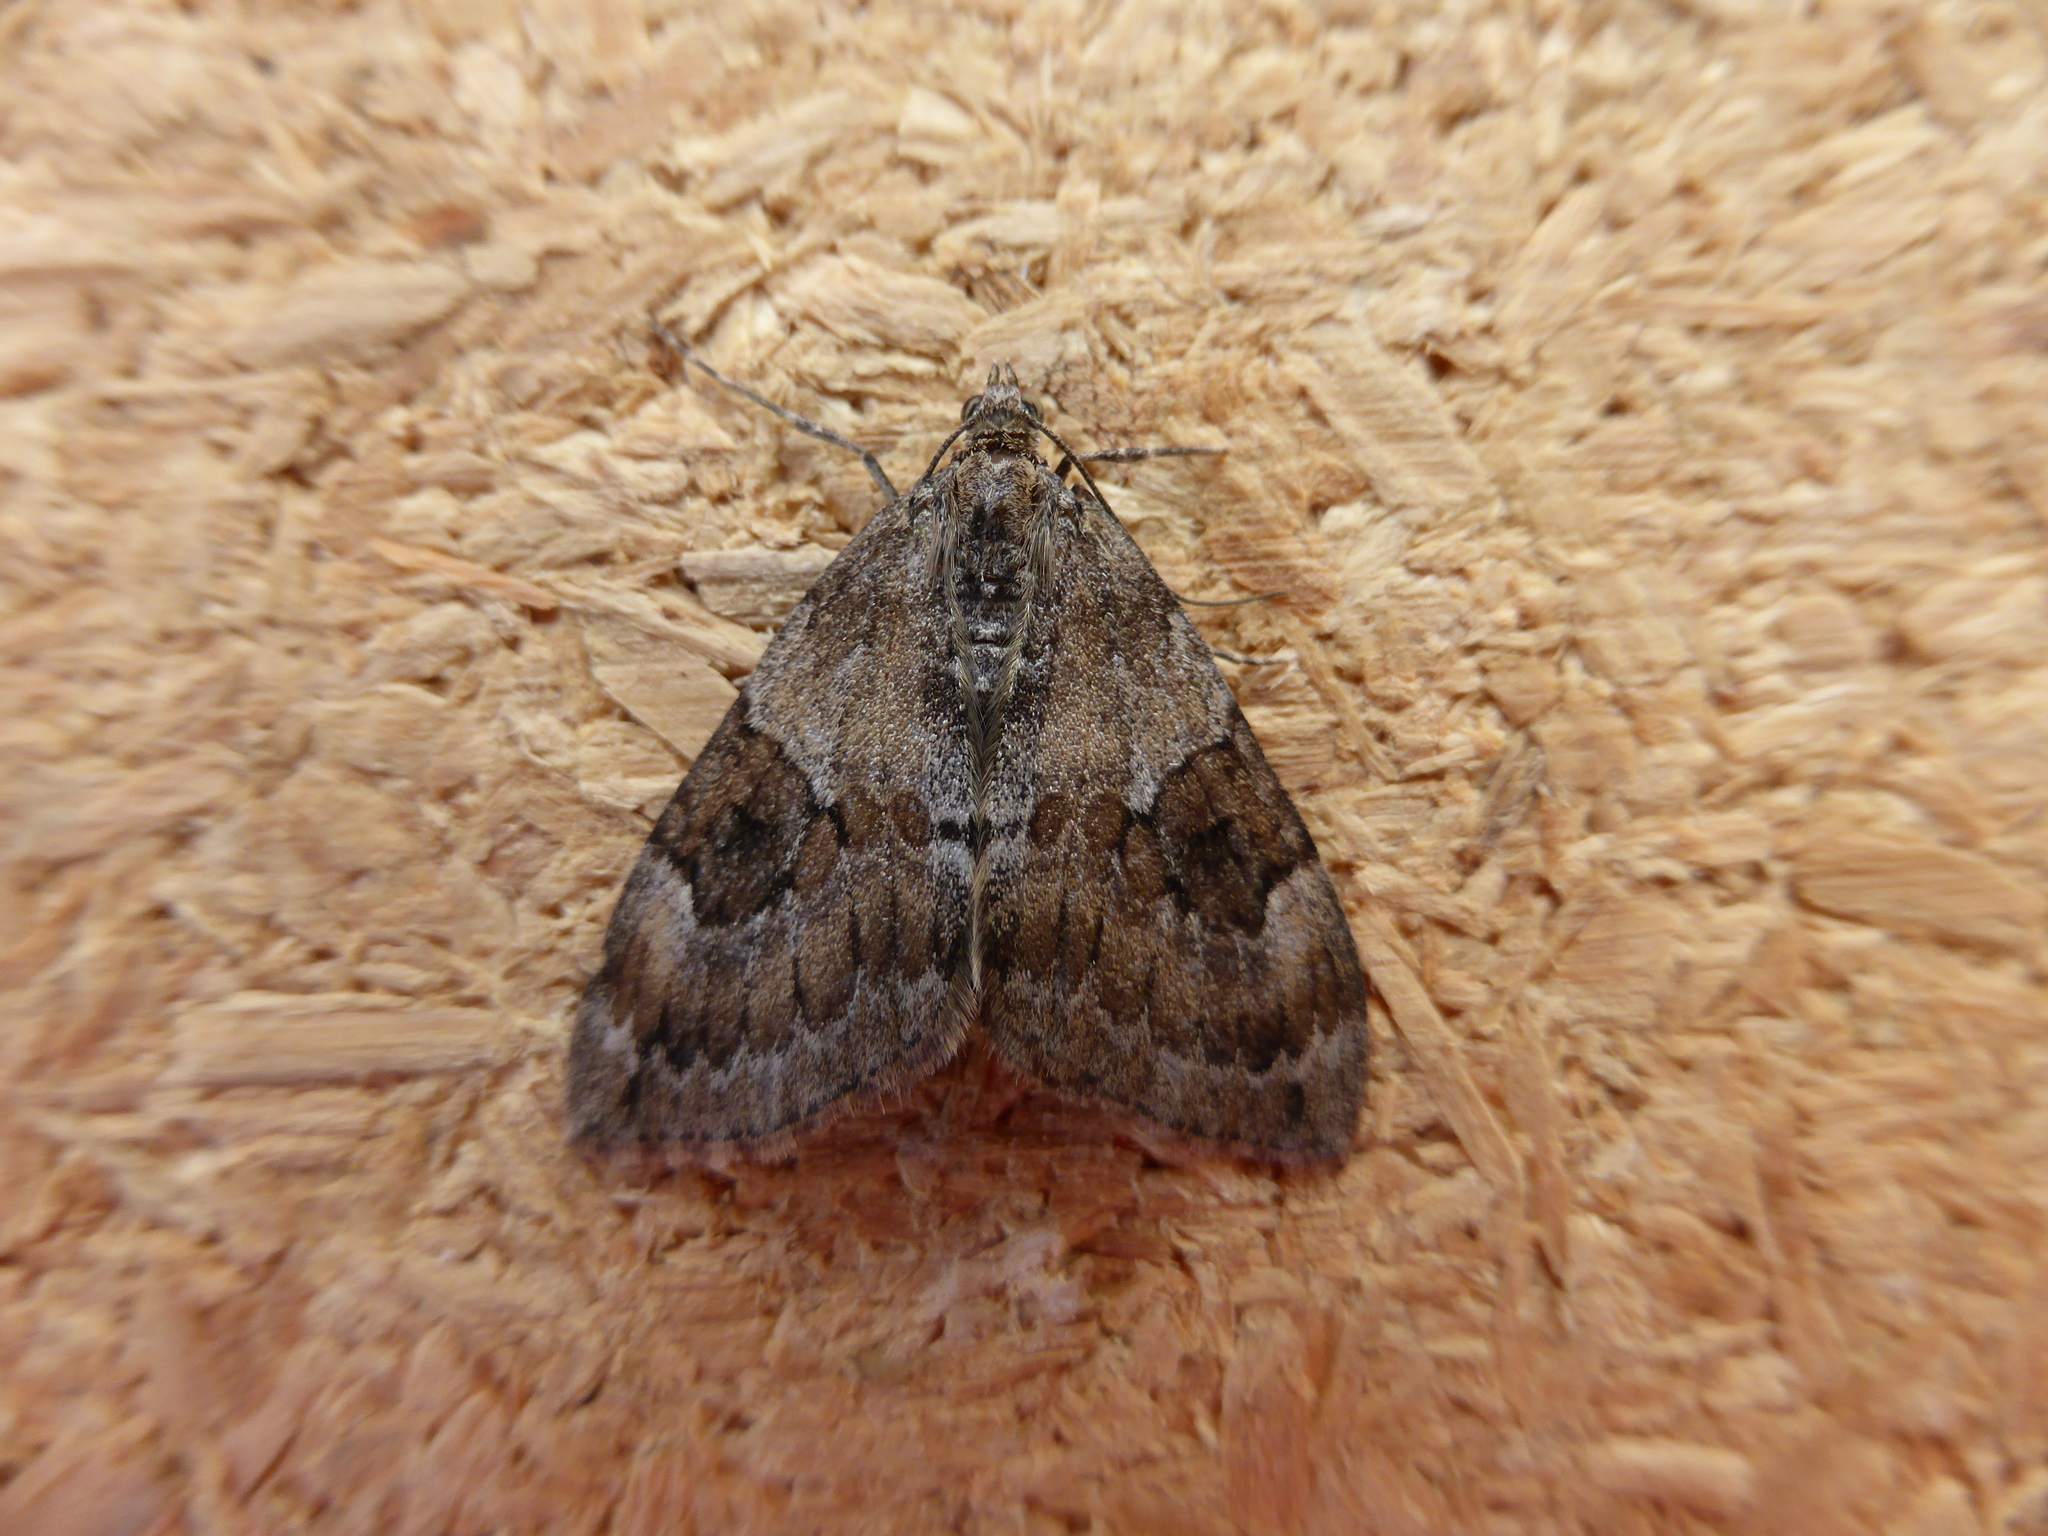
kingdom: Animalia
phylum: Arthropoda
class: Insecta
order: Lepidoptera
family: Geometridae
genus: Thera
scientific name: Thera britannica
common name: Spruce carpet
